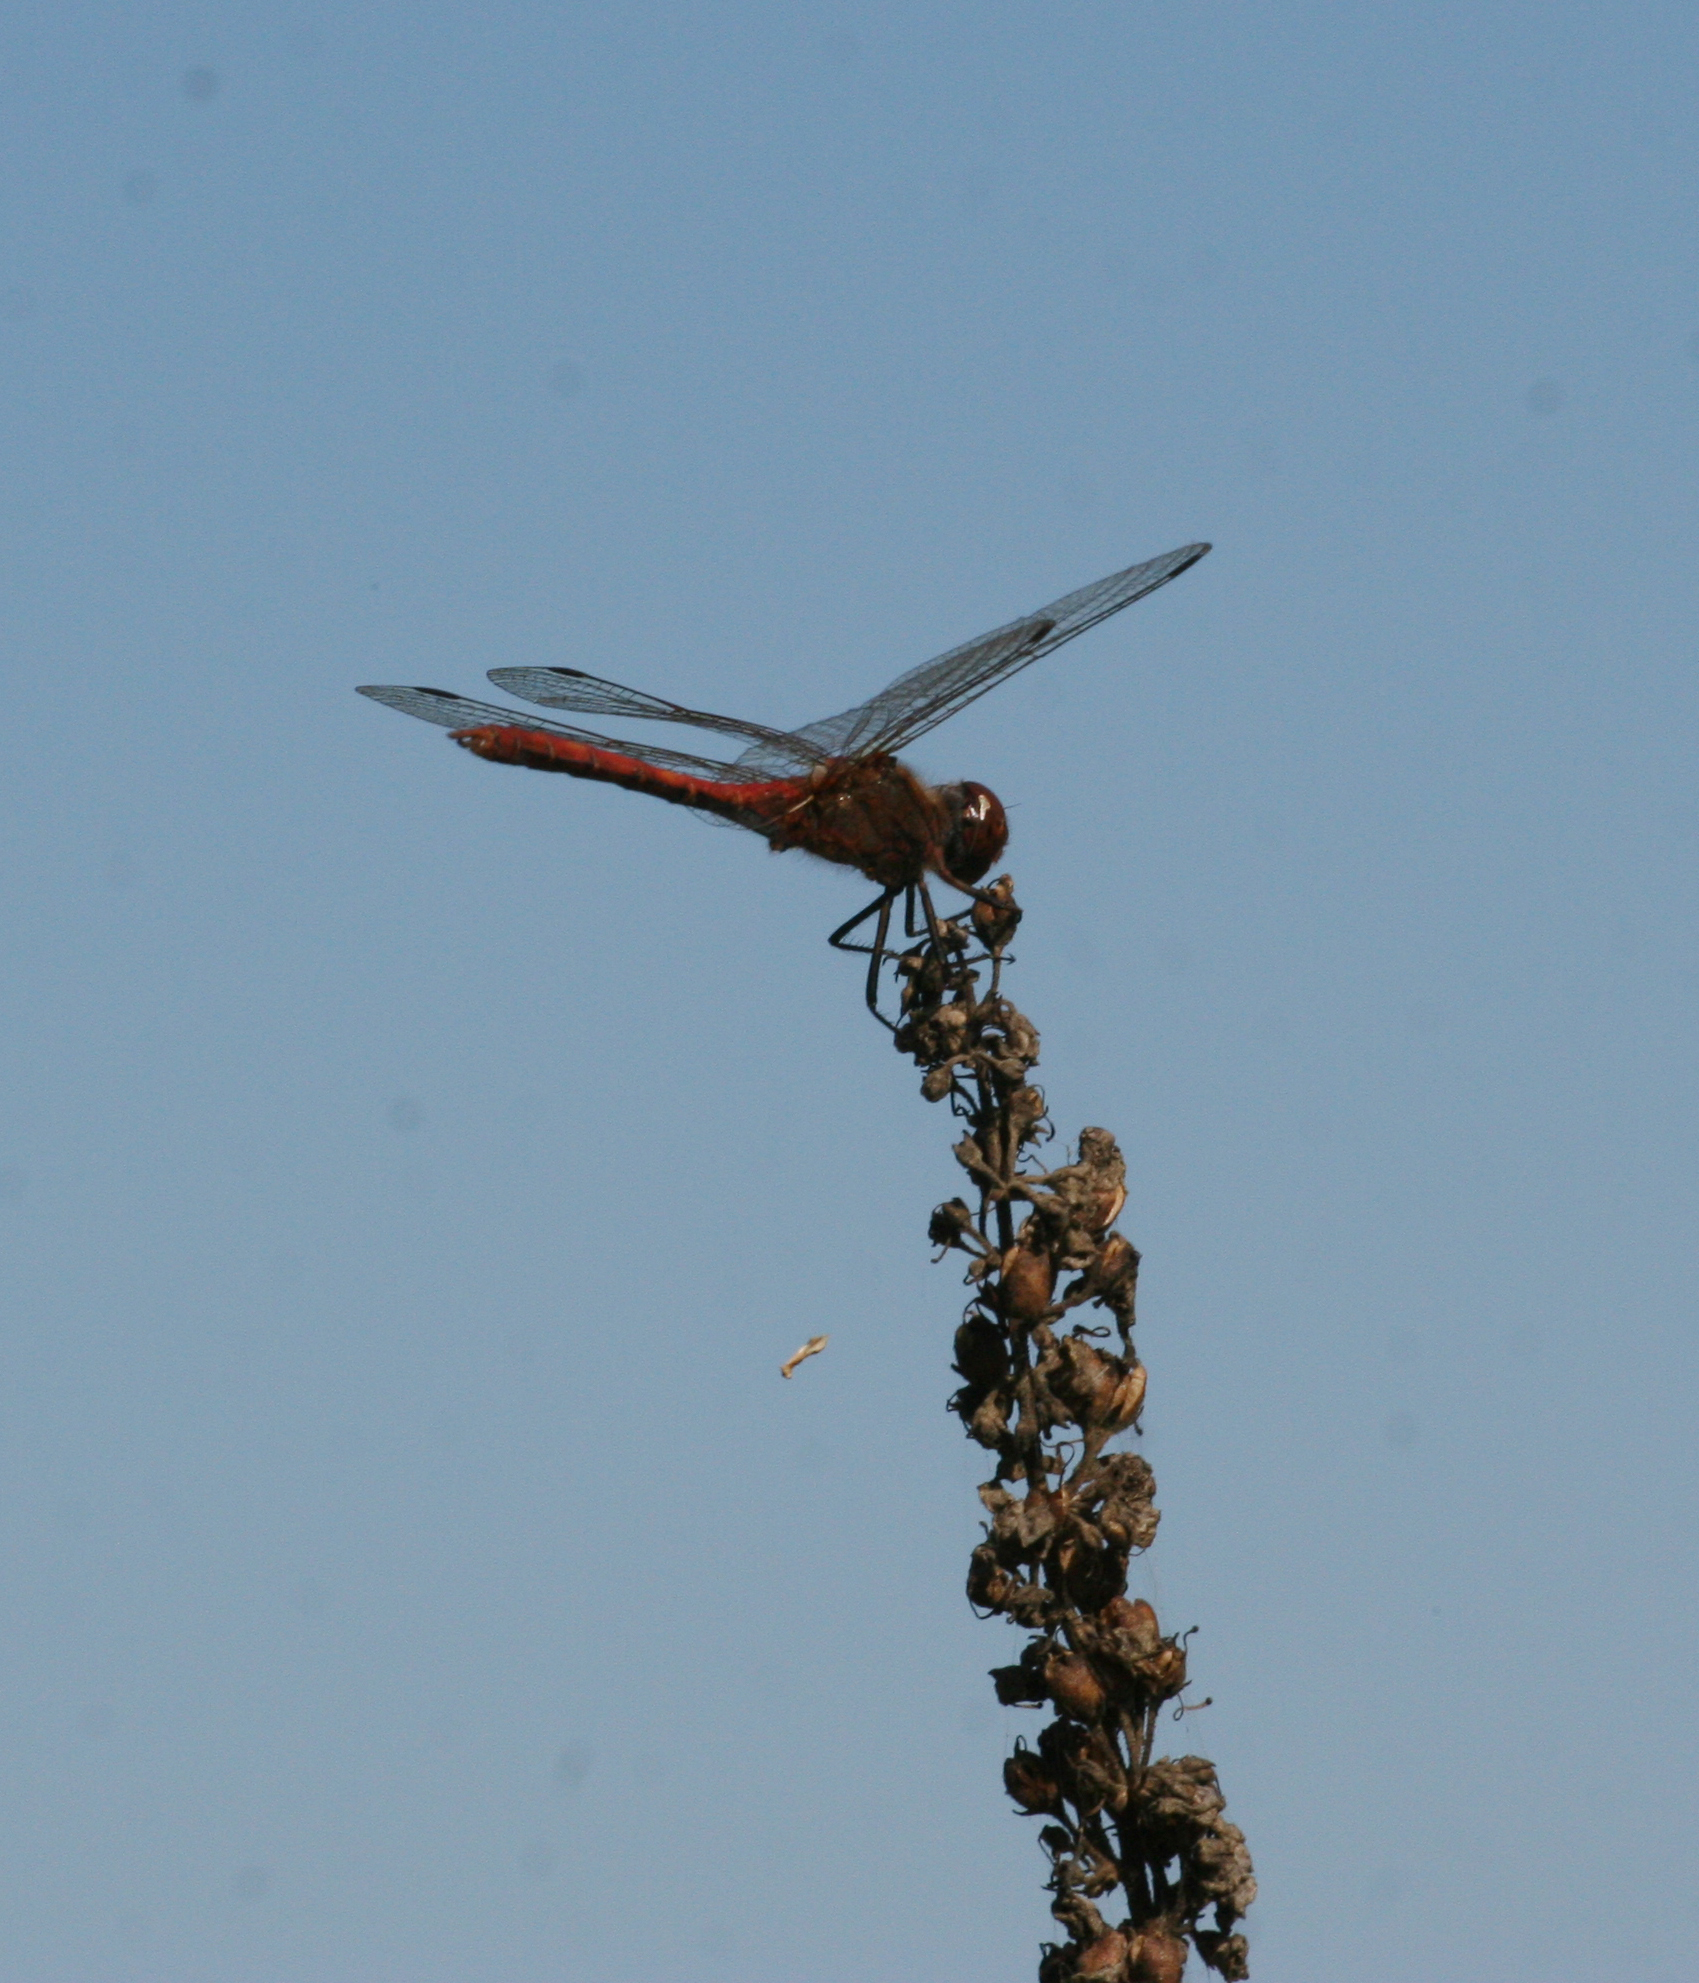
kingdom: Animalia
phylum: Arthropoda
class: Insecta
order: Odonata
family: Libellulidae
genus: Sympetrum
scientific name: Sympetrum sanguineum
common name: Ruddy darter
